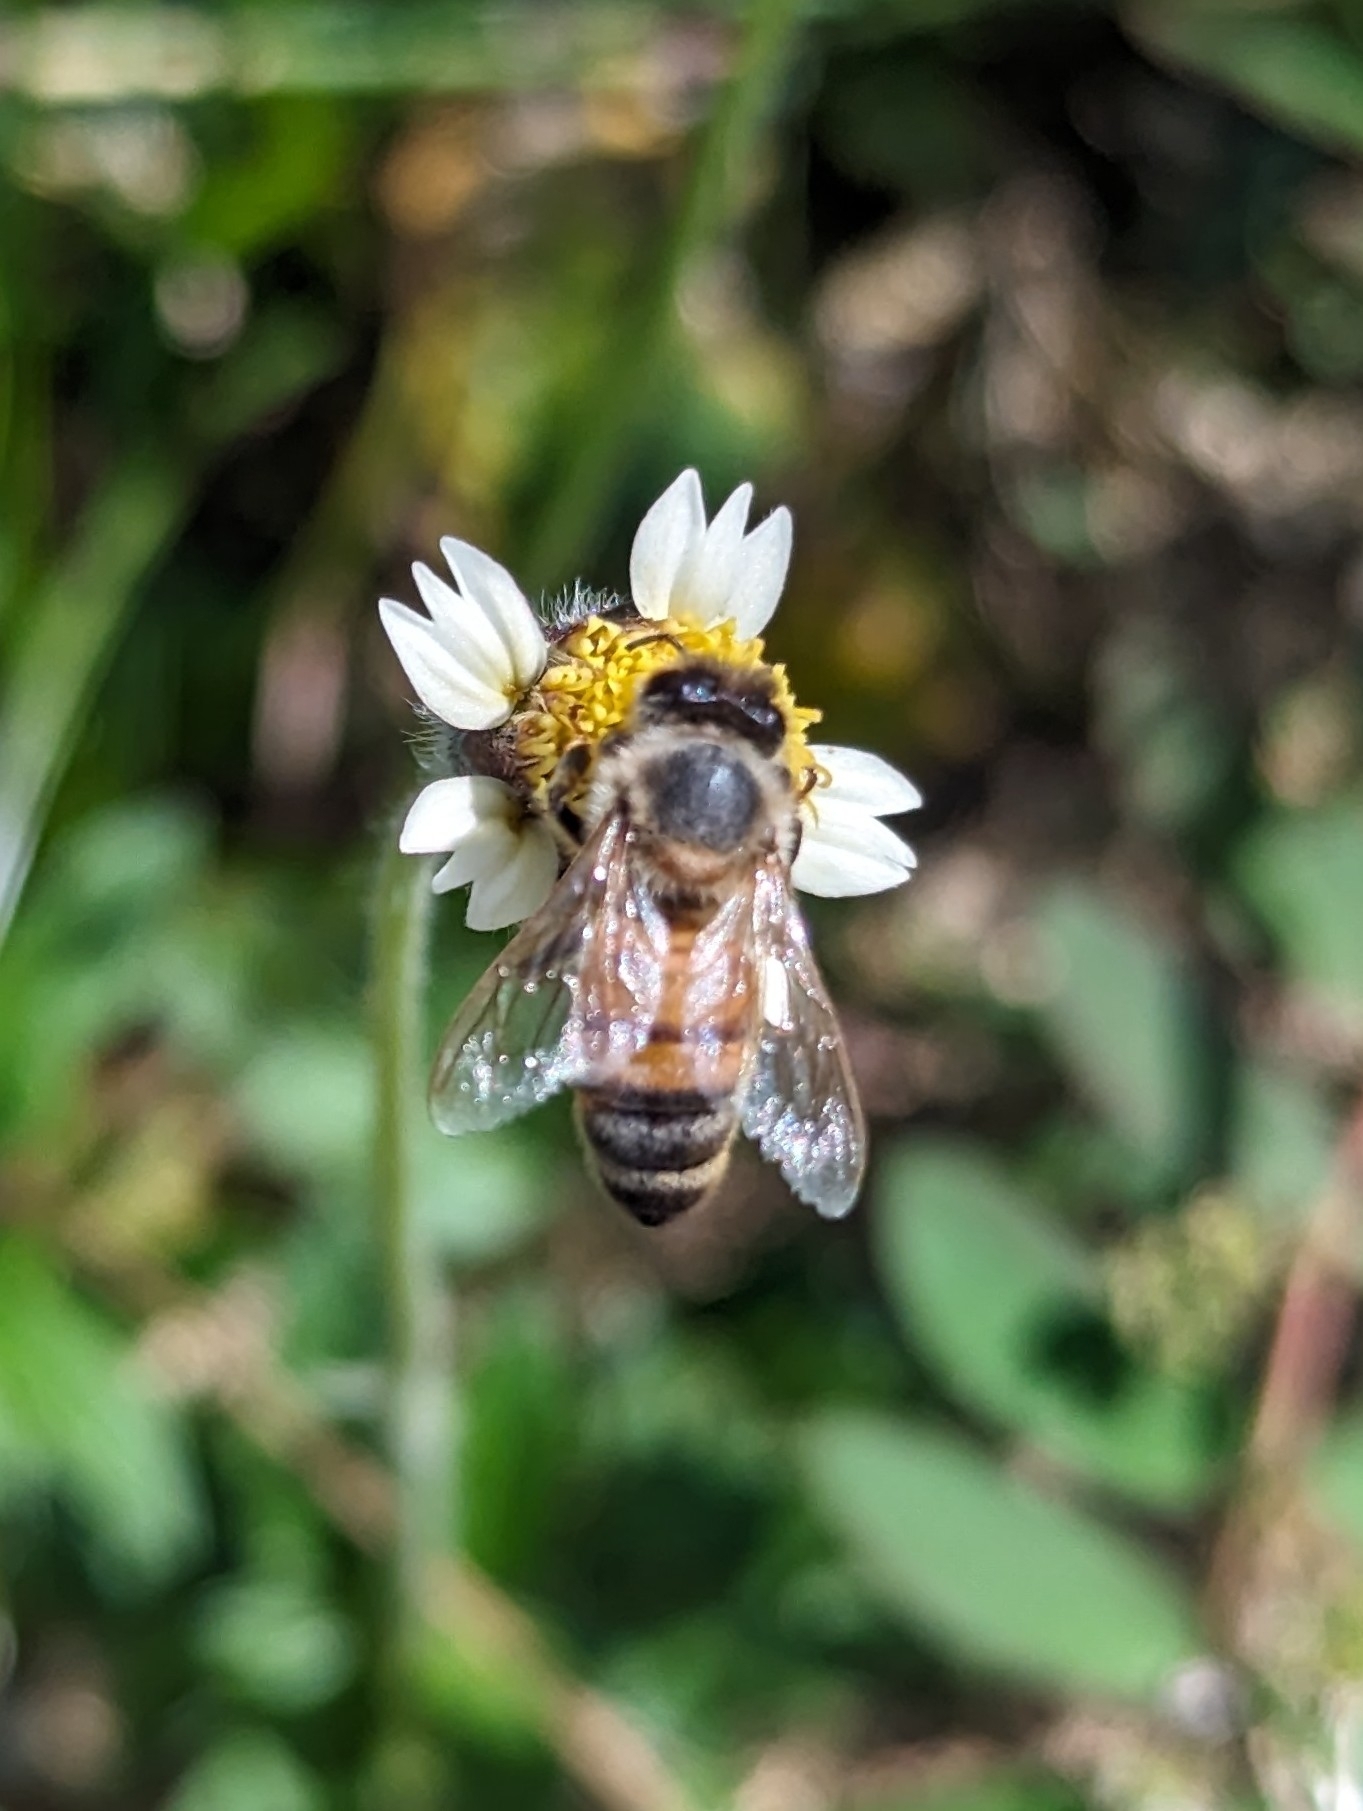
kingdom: Animalia
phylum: Arthropoda
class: Insecta
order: Hymenoptera
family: Apidae
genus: Apis
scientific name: Apis mellifera
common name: Honey bee
